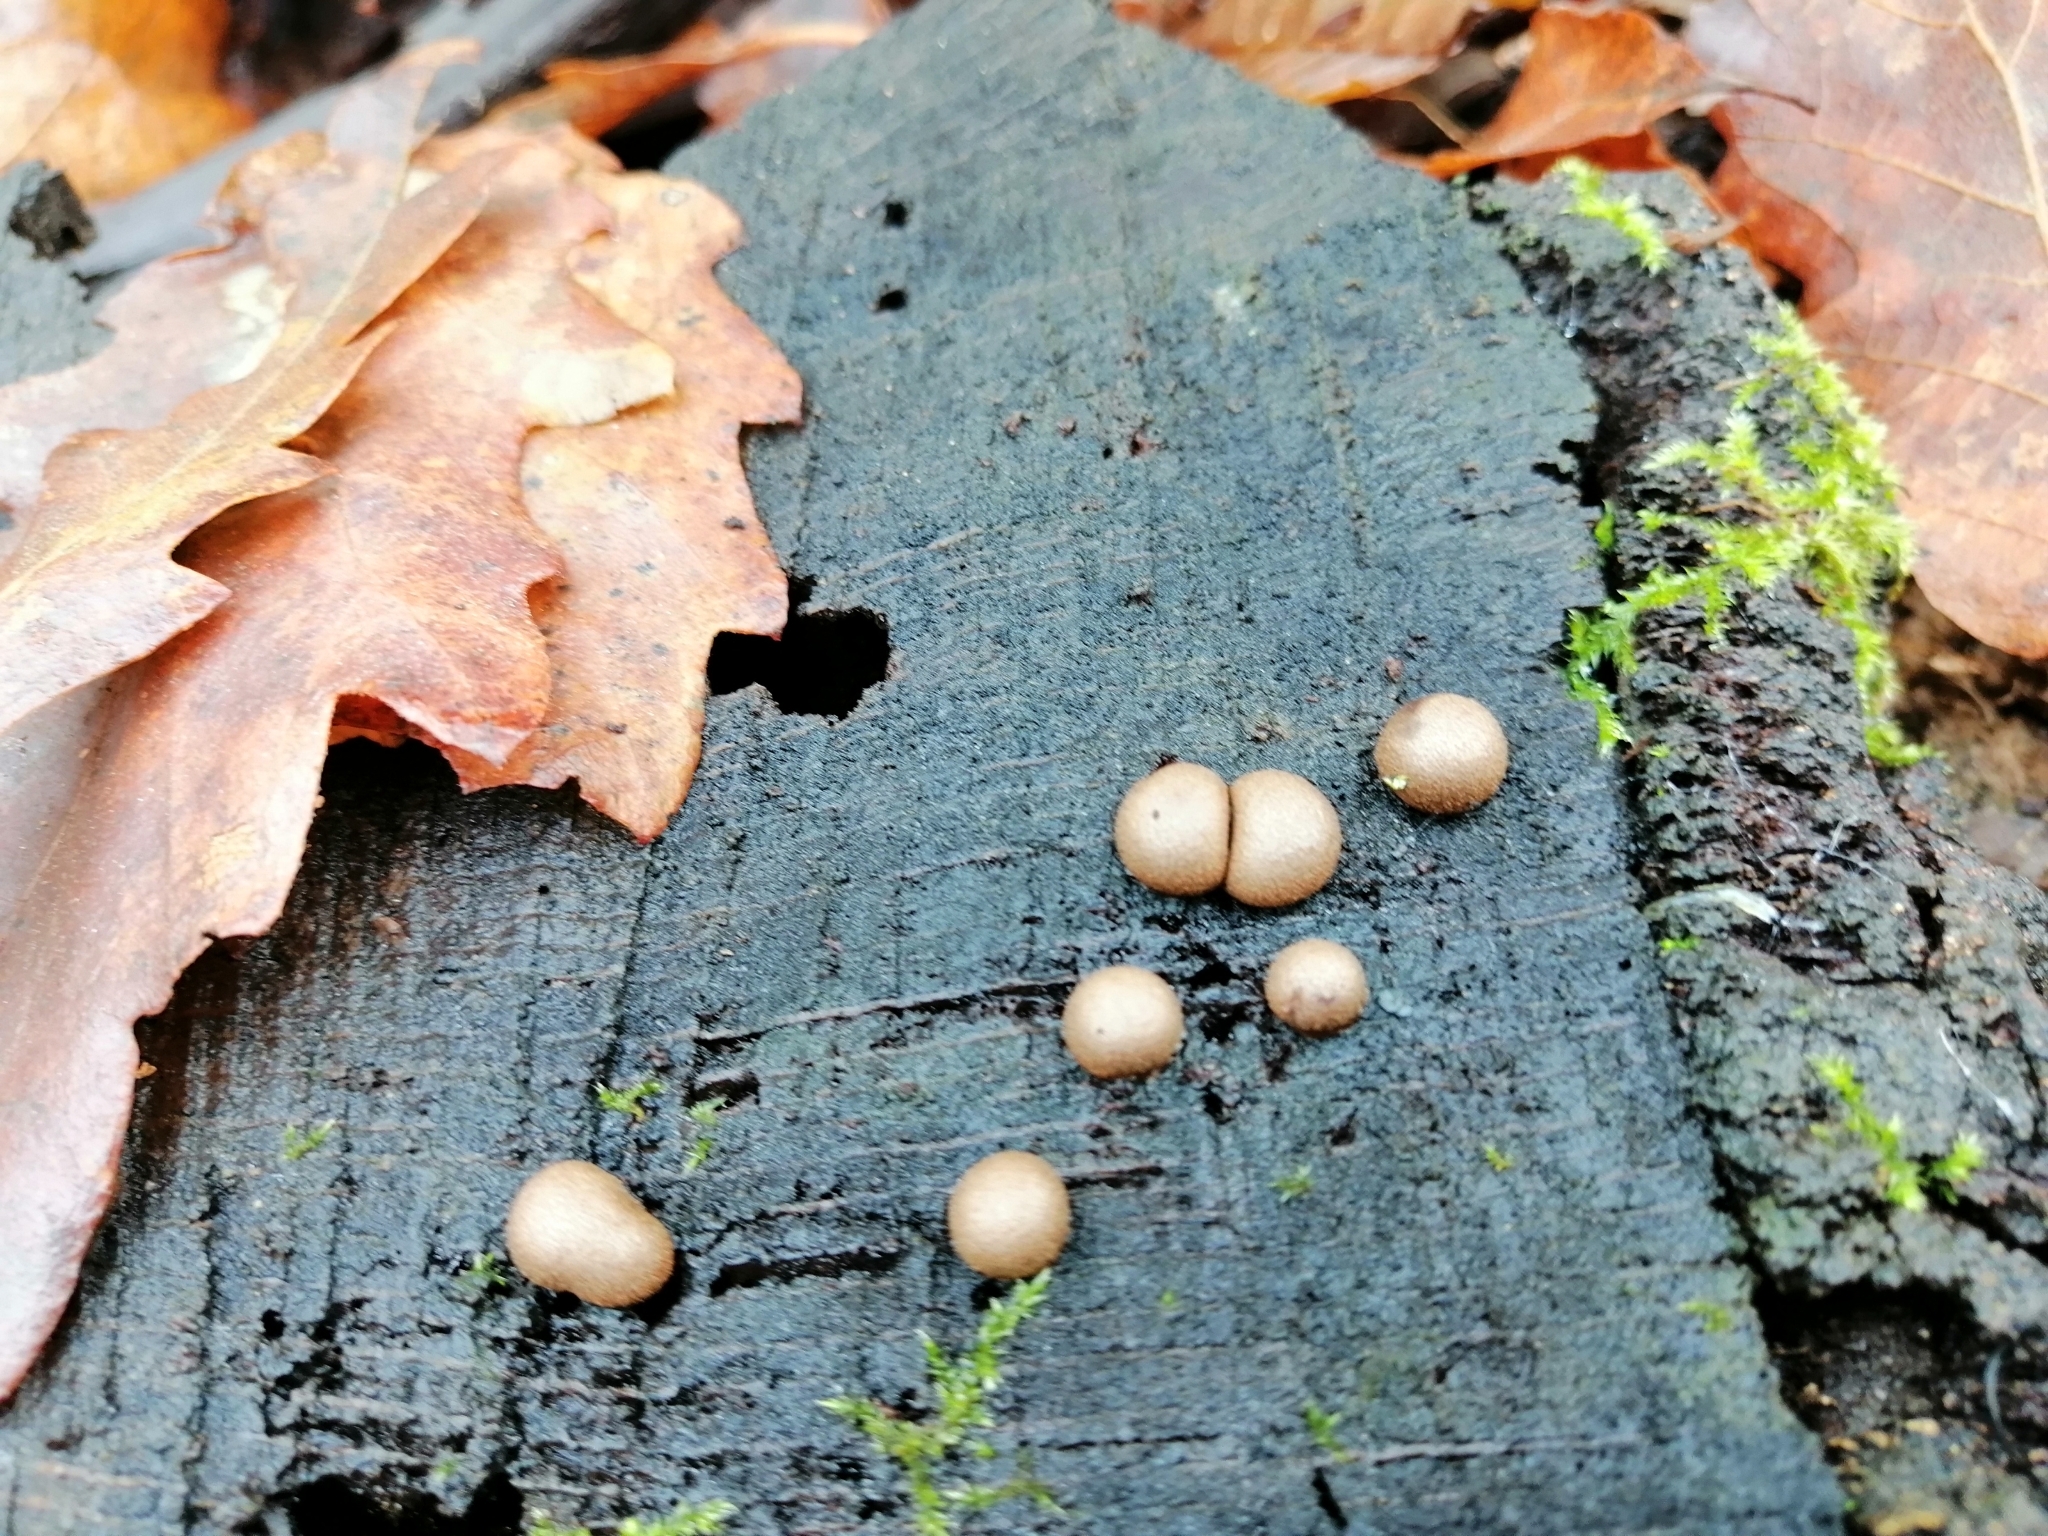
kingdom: Protozoa
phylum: Mycetozoa
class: Myxomycetes
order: Cribrariales
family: Tubiferaceae
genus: Lycogala
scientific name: Lycogala epidendrum
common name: Wolf's milk
